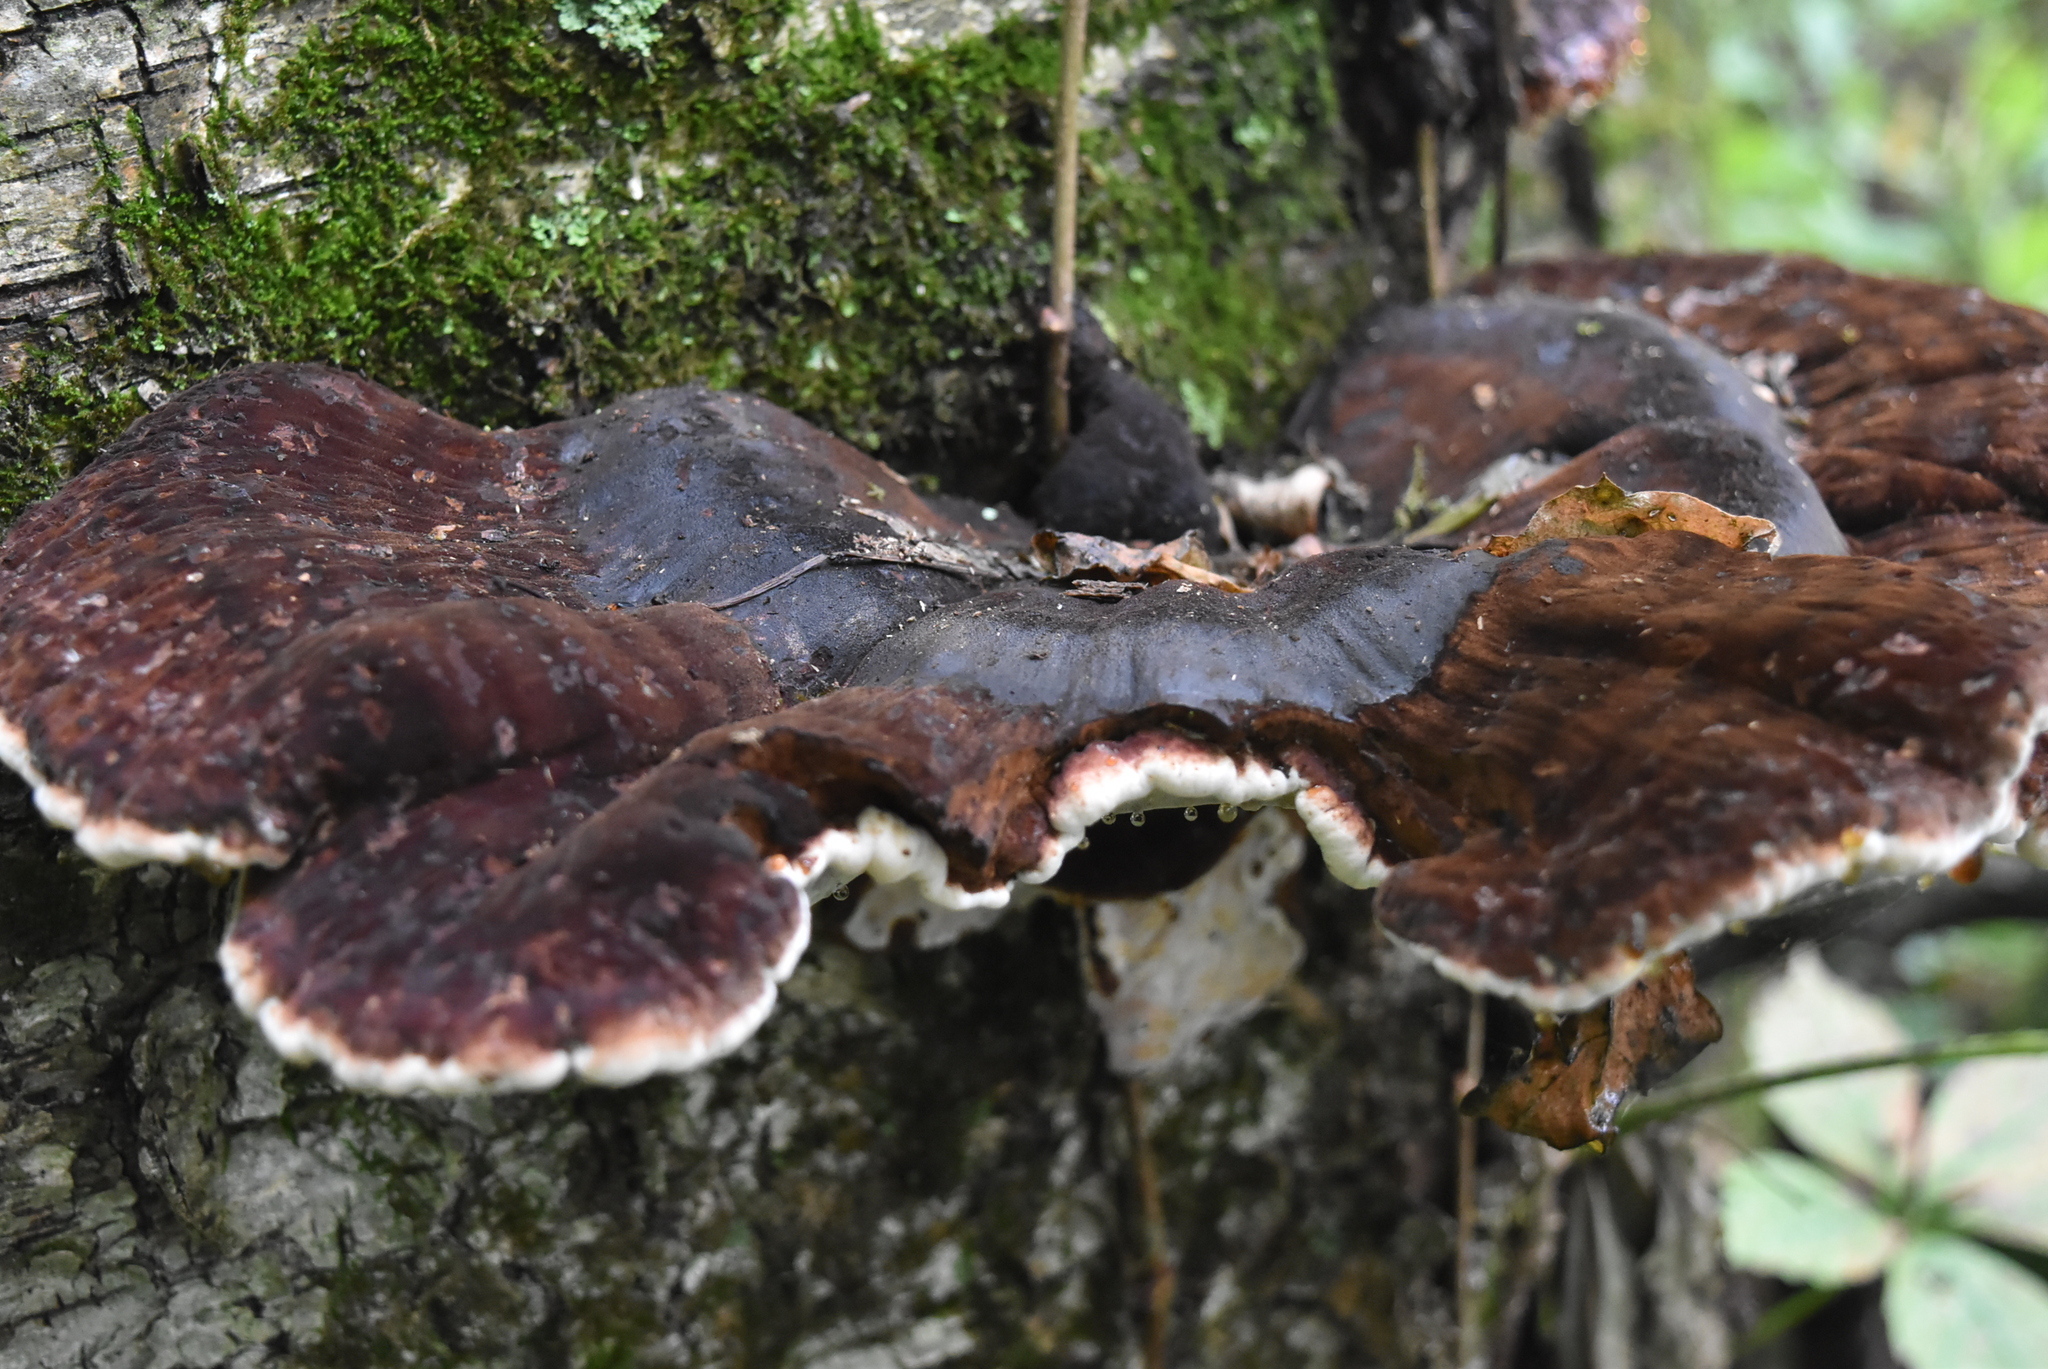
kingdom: Fungi
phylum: Basidiomycota
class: Agaricomycetes
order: Polyporales
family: Ischnodermataceae
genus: Ischnoderma
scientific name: Ischnoderma resinosum
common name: Resinous polypore
